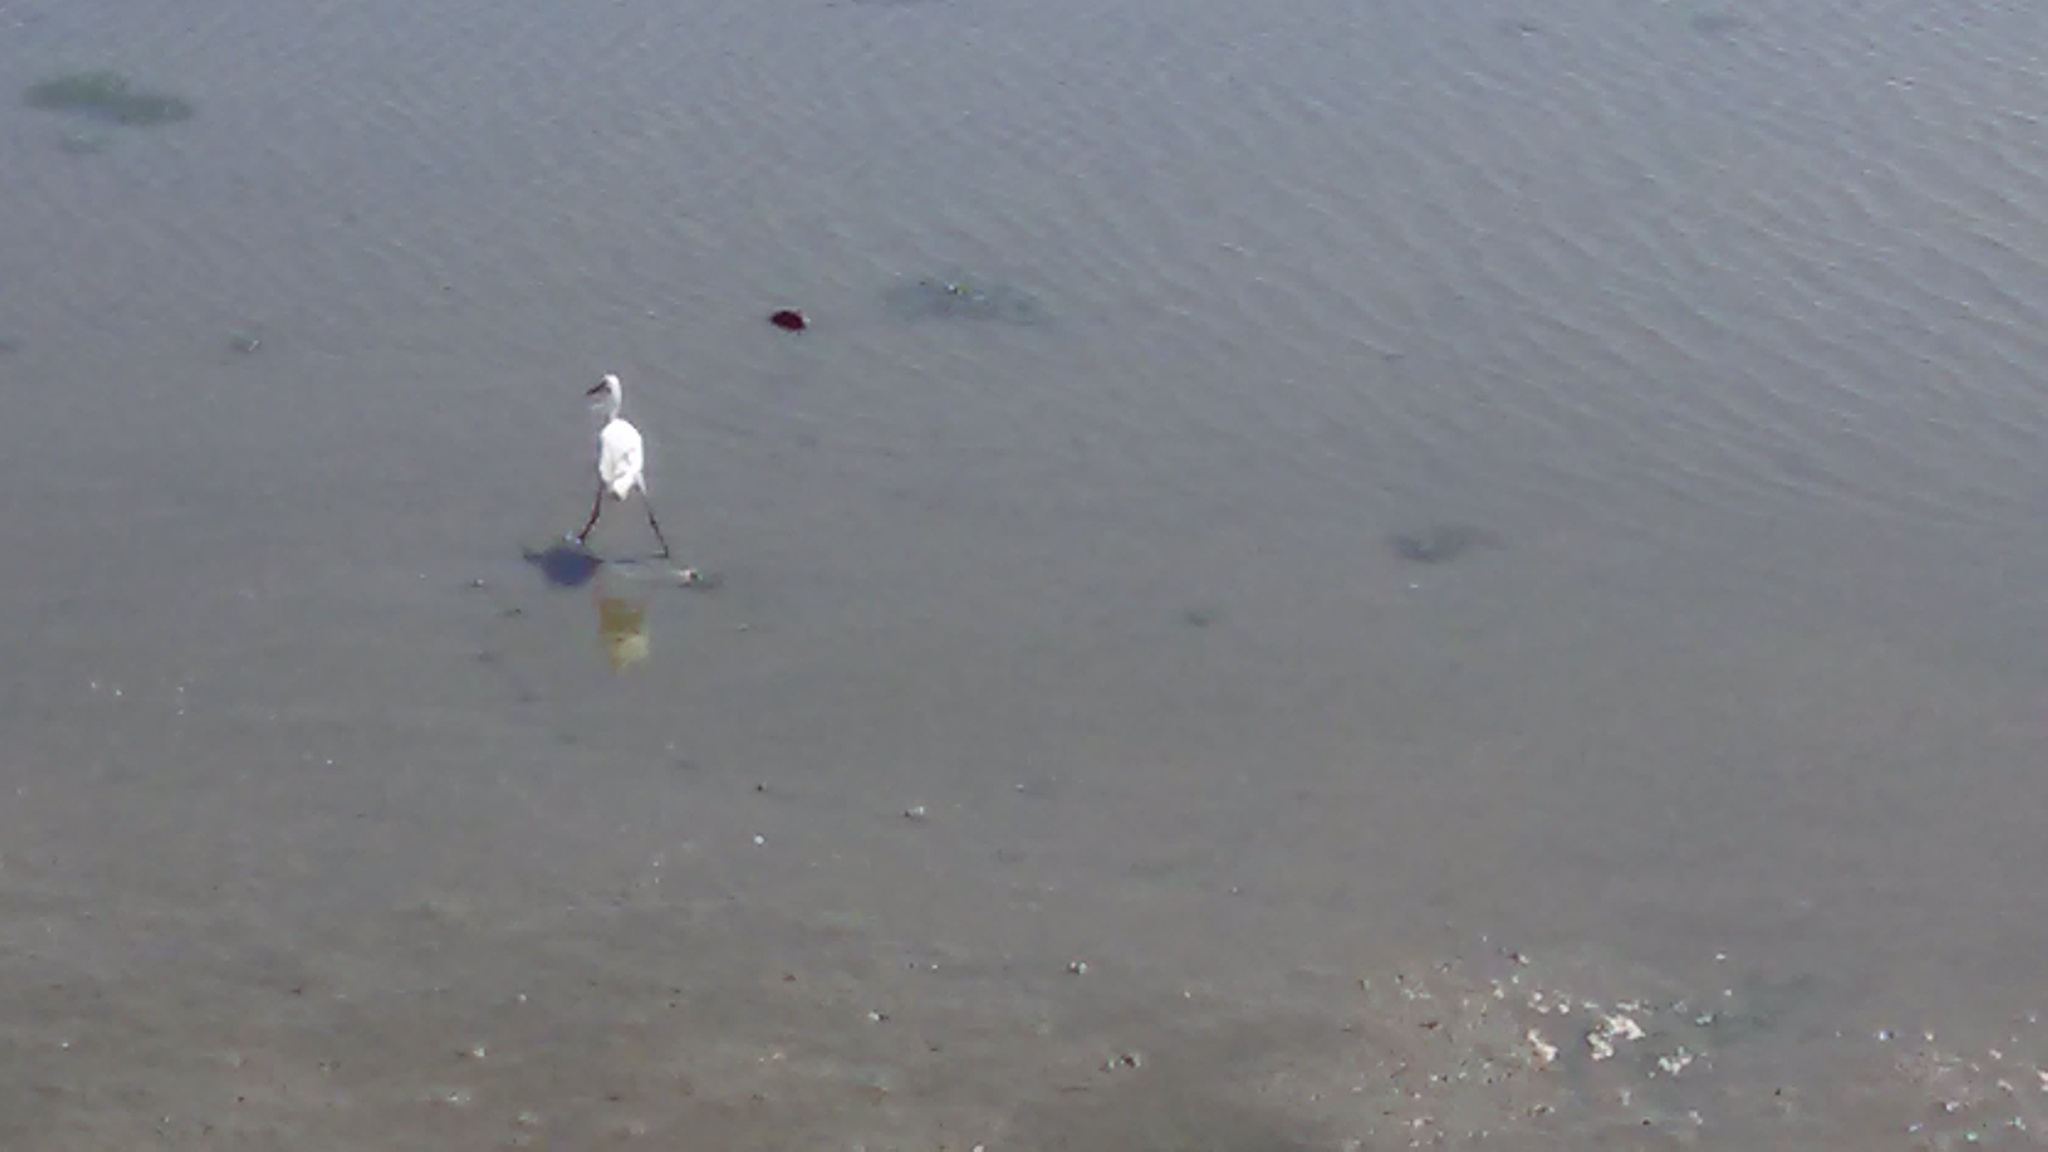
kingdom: Animalia
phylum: Chordata
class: Aves
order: Pelecaniformes
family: Ardeidae
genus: Egretta
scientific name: Egretta thula
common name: Snowy egret
